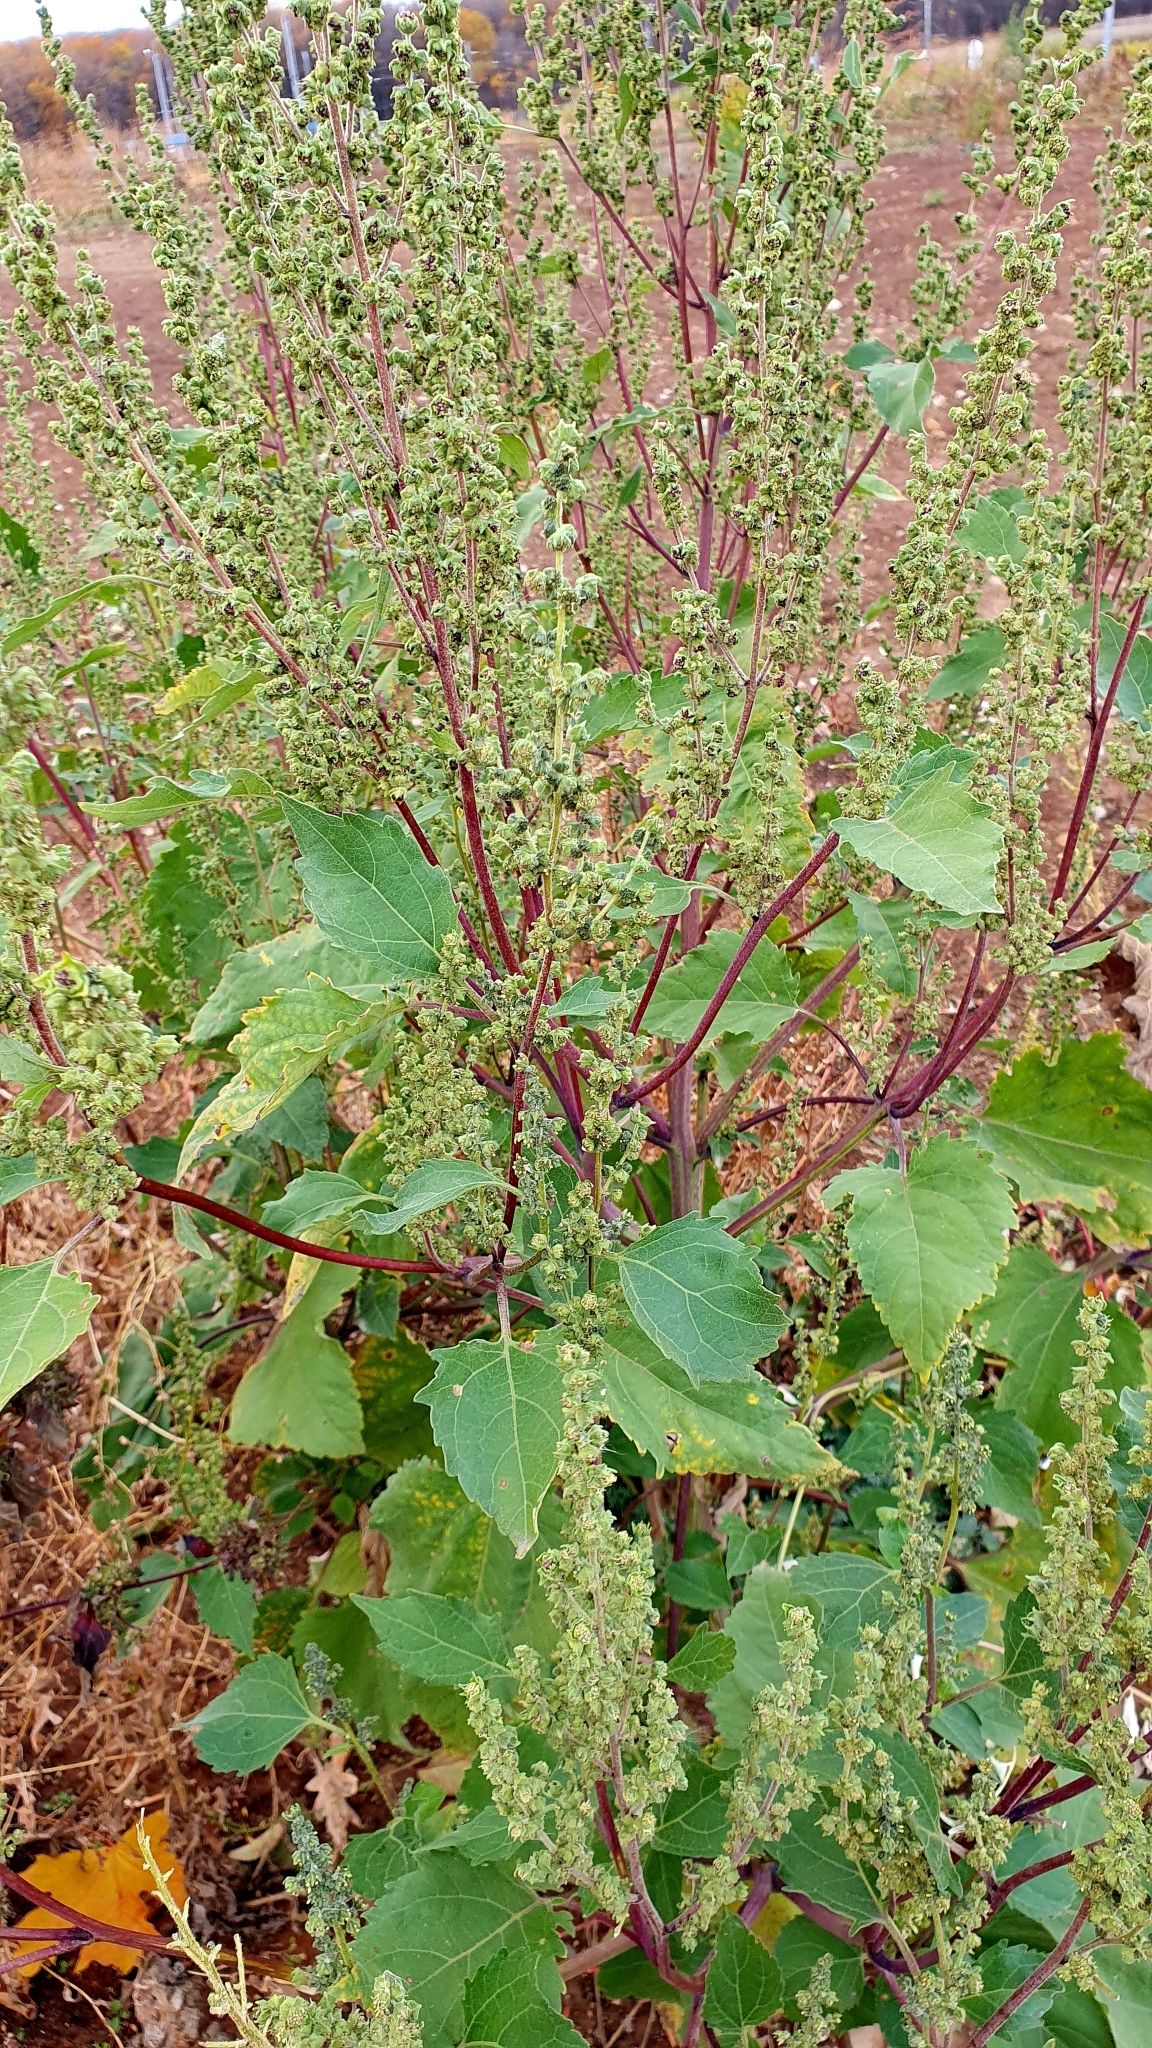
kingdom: Plantae
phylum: Tracheophyta
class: Magnoliopsida
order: Asterales
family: Asteraceae
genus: Cyclachaena
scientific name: Cyclachaena xanthiifolia
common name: Giant sumpweed
